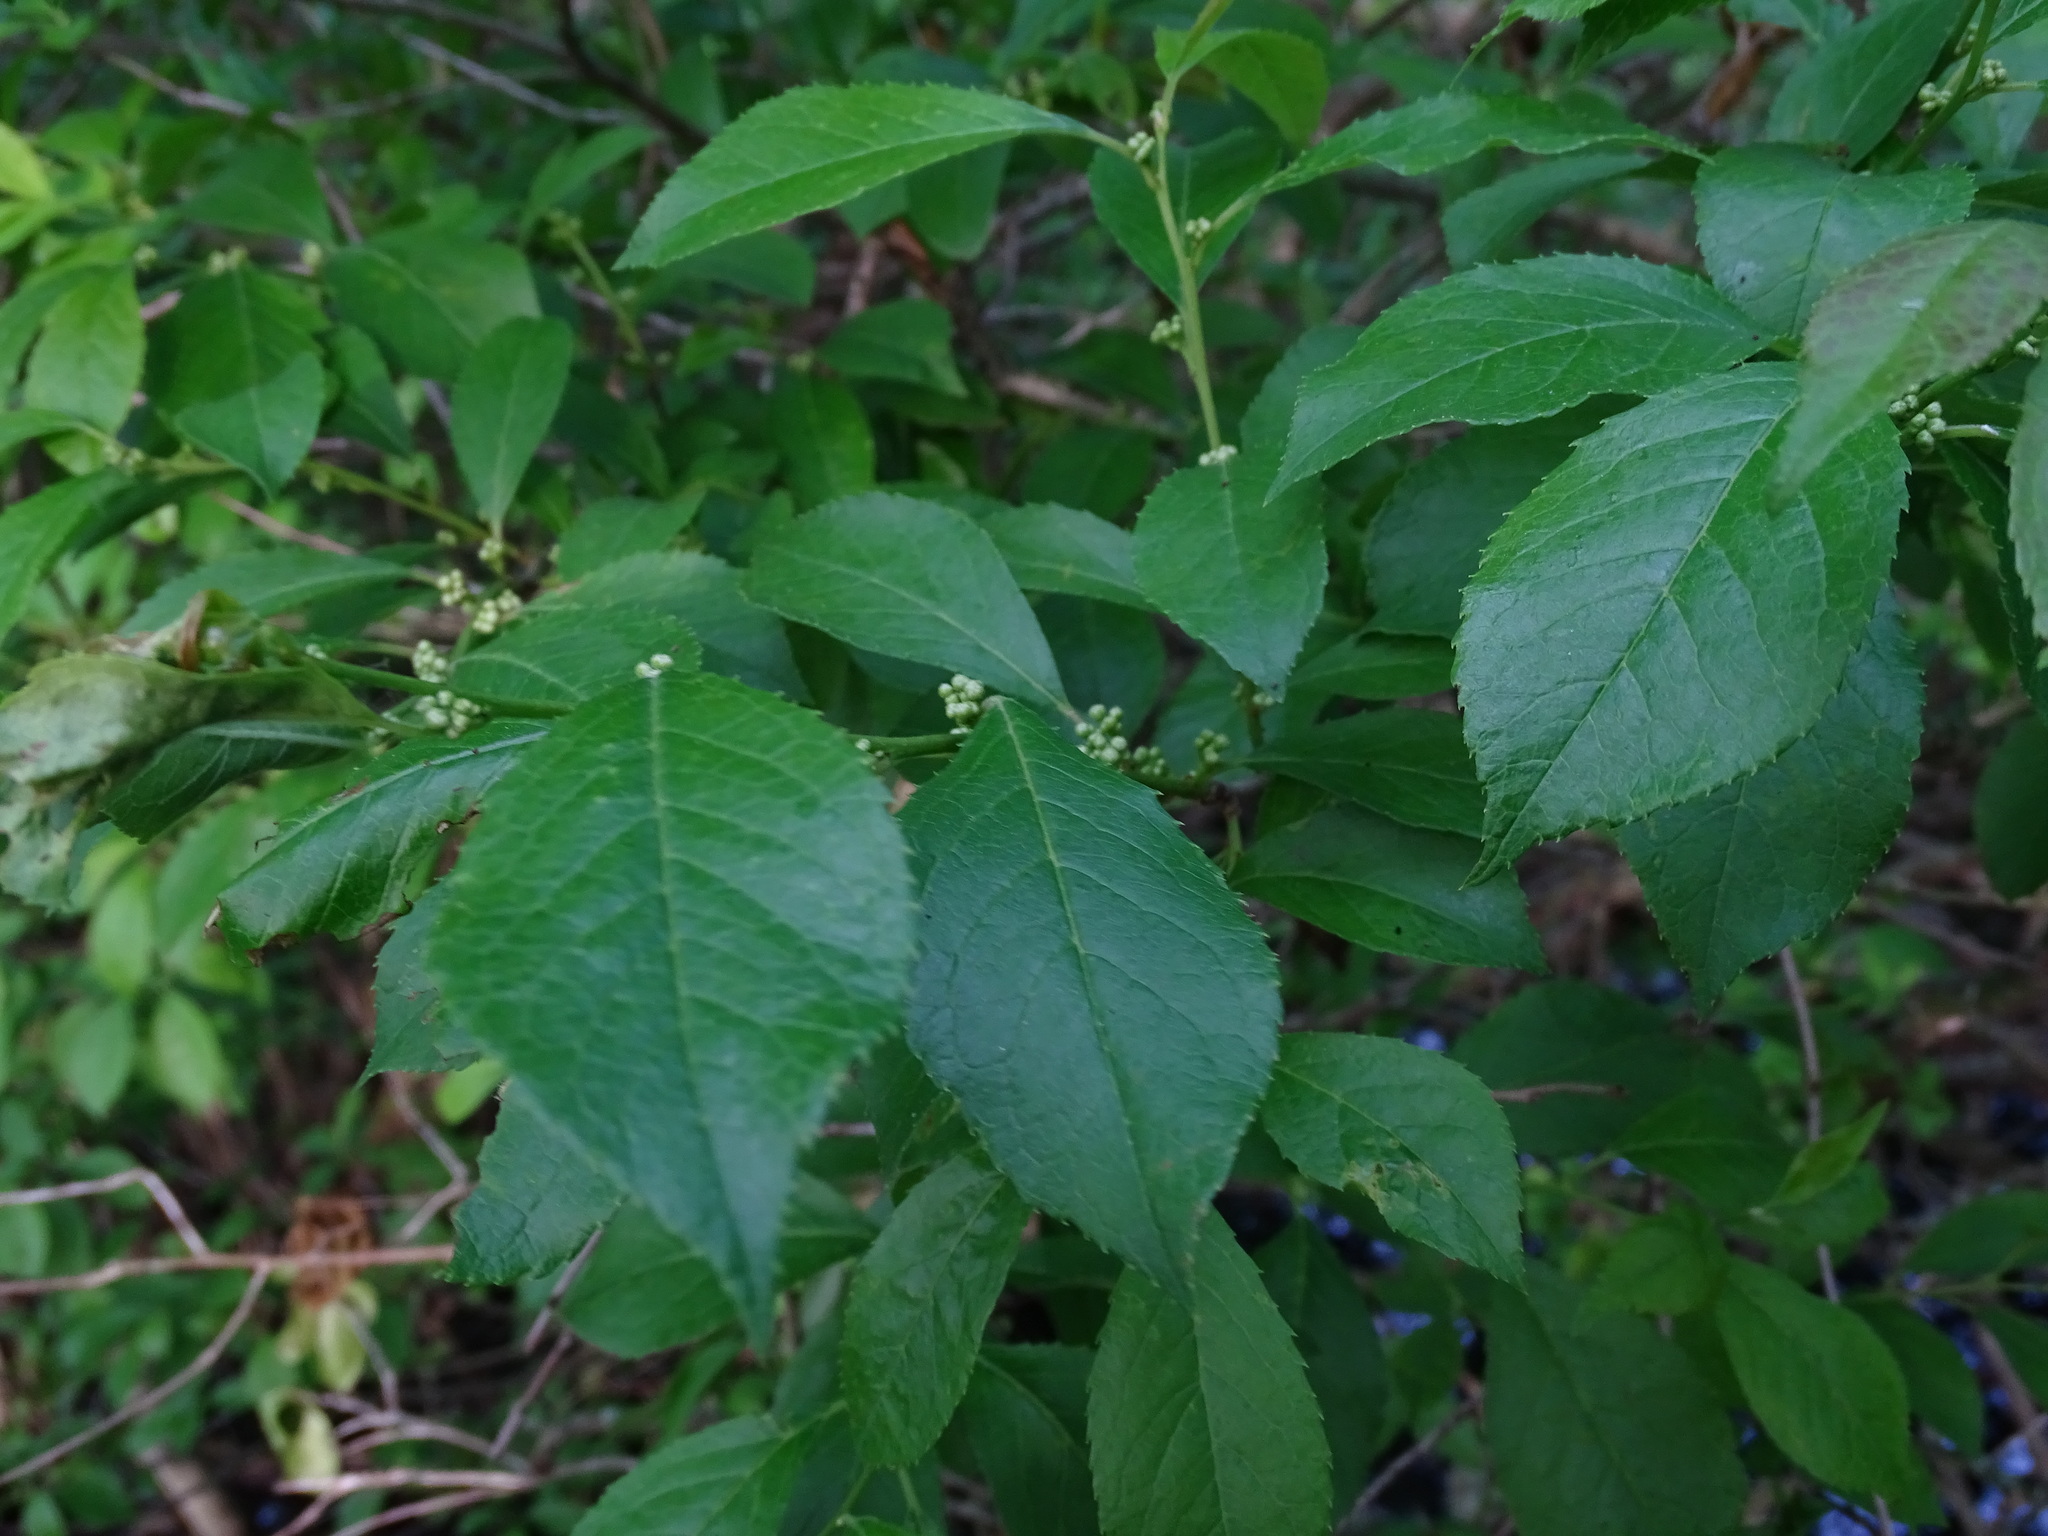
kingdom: Plantae
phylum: Tracheophyta
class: Magnoliopsida
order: Aquifoliales
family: Aquifoliaceae
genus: Ilex
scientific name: Ilex verticillata
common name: Virginia winterberry
